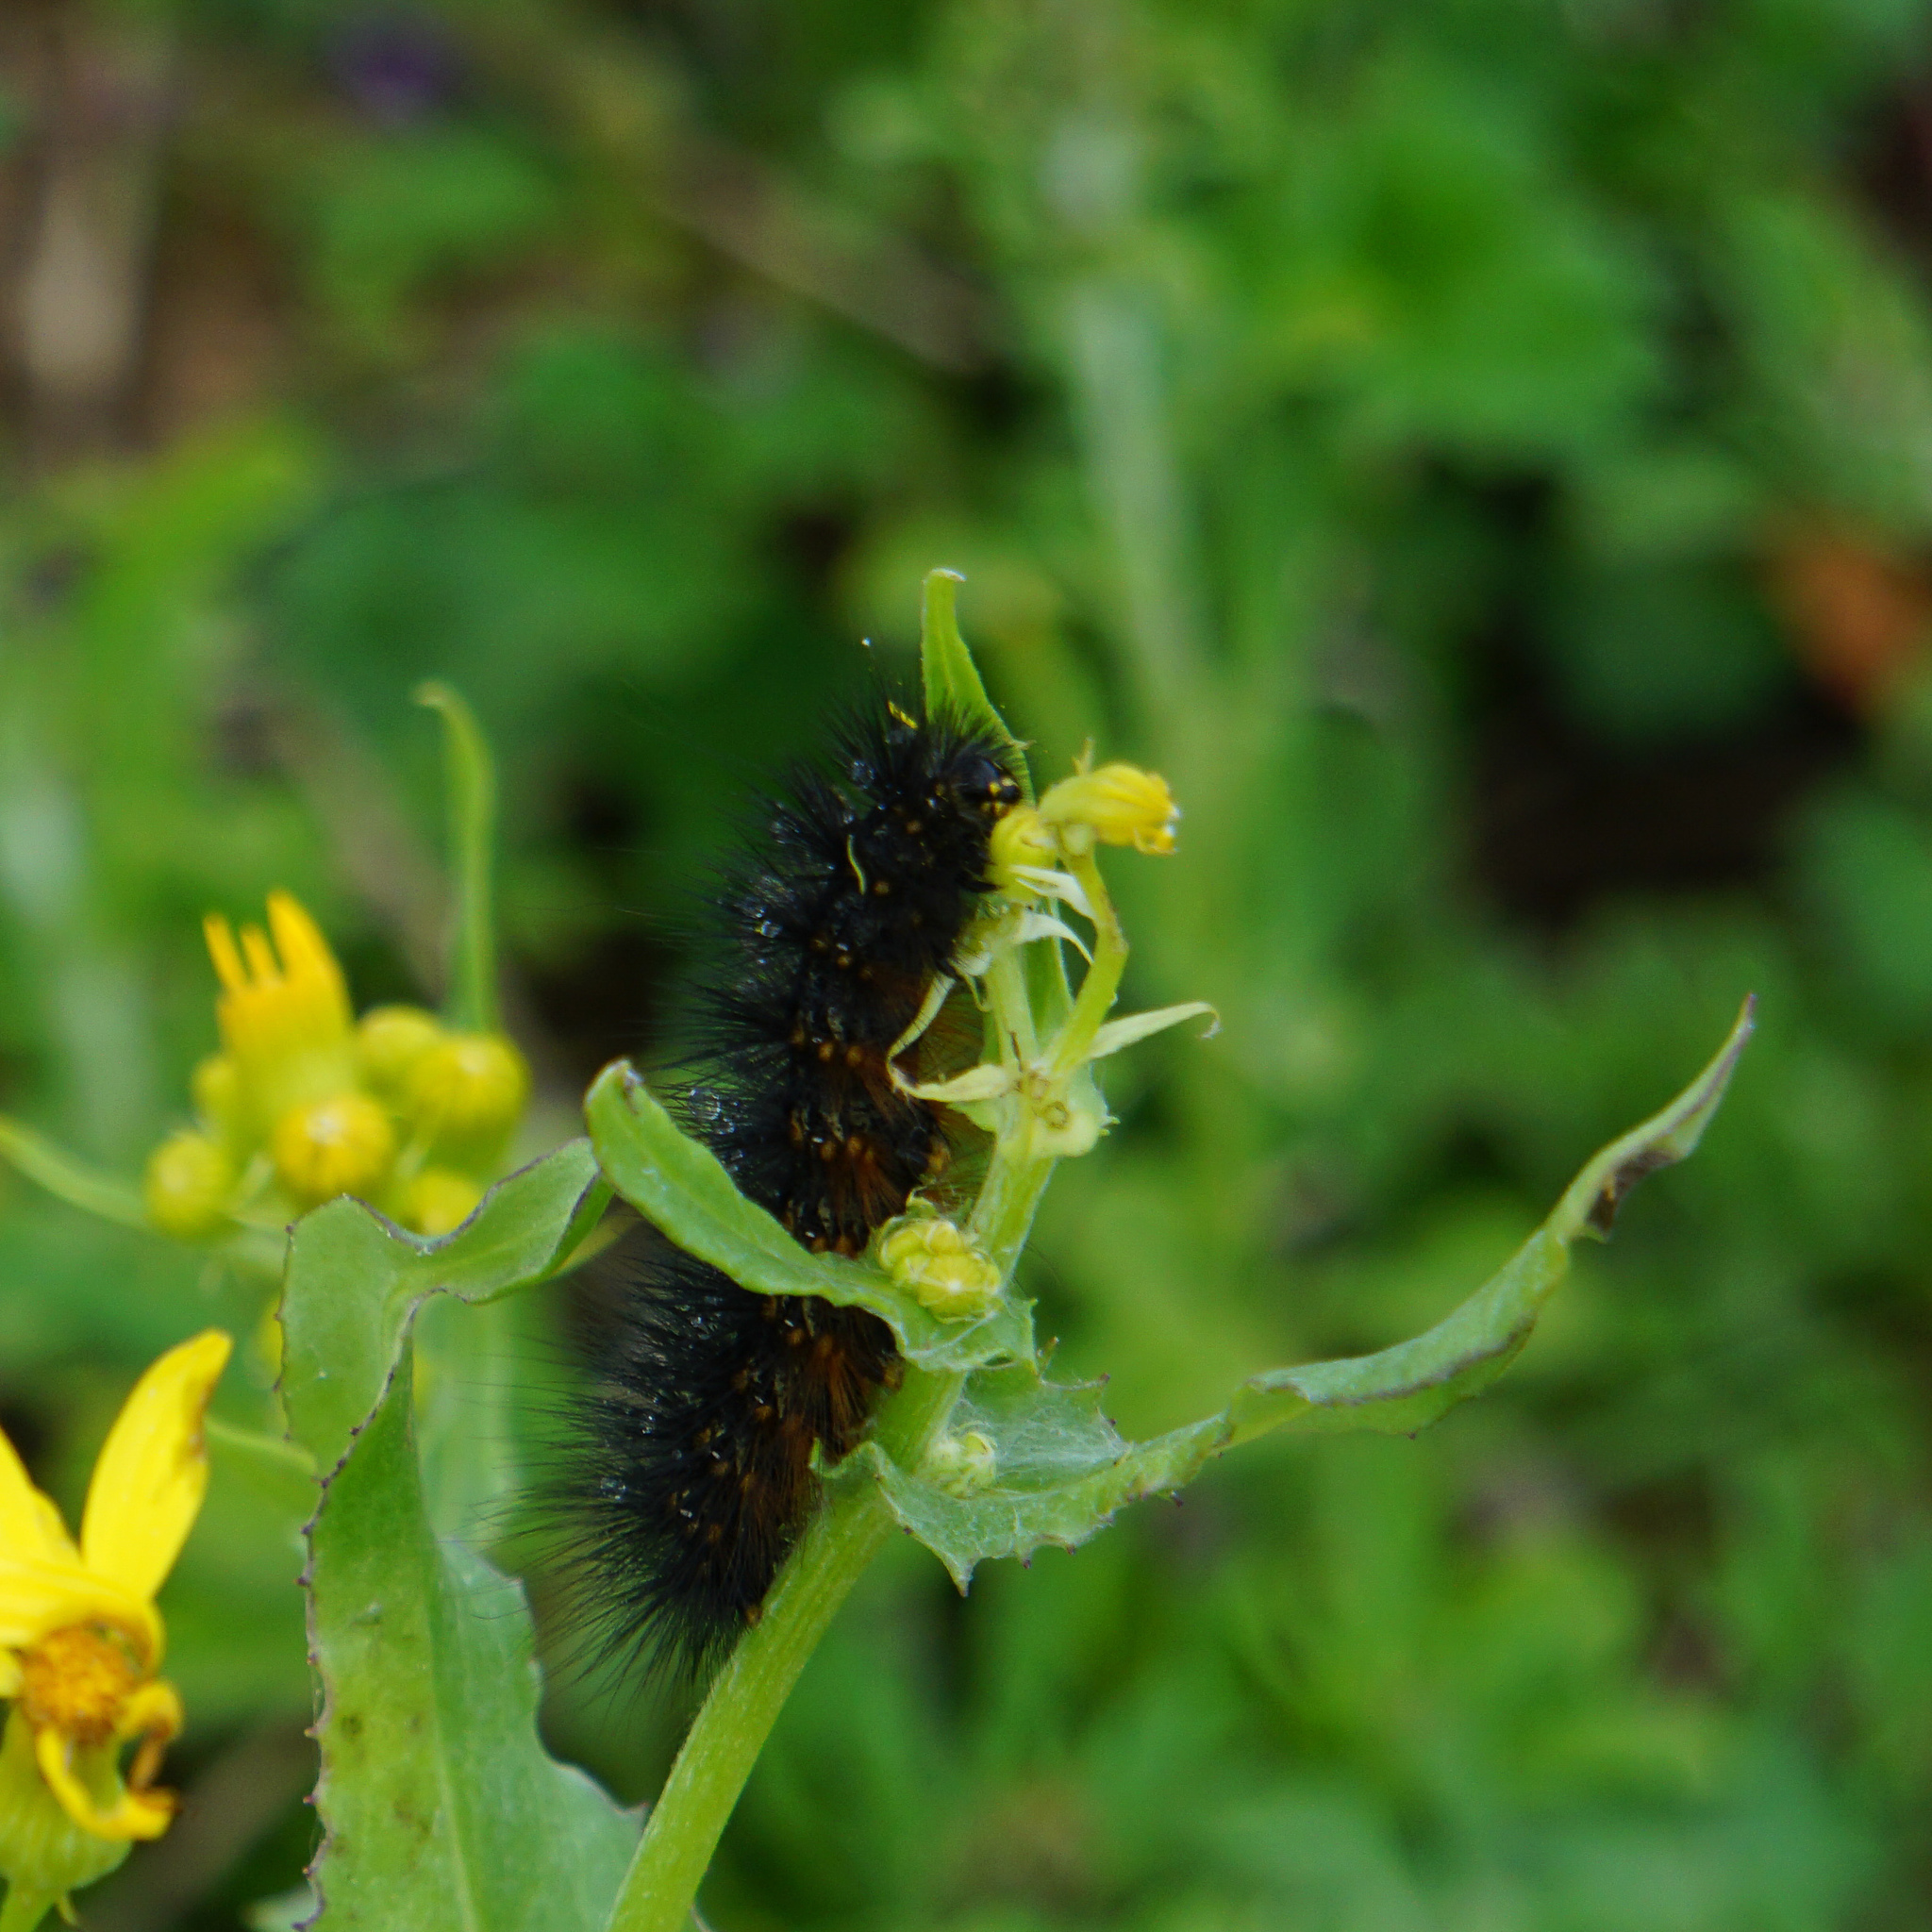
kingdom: Animalia
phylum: Arthropoda
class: Insecta
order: Lepidoptera
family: Erebidae
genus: Estigmene
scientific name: Estigmene acrea
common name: Salt marsh moth
